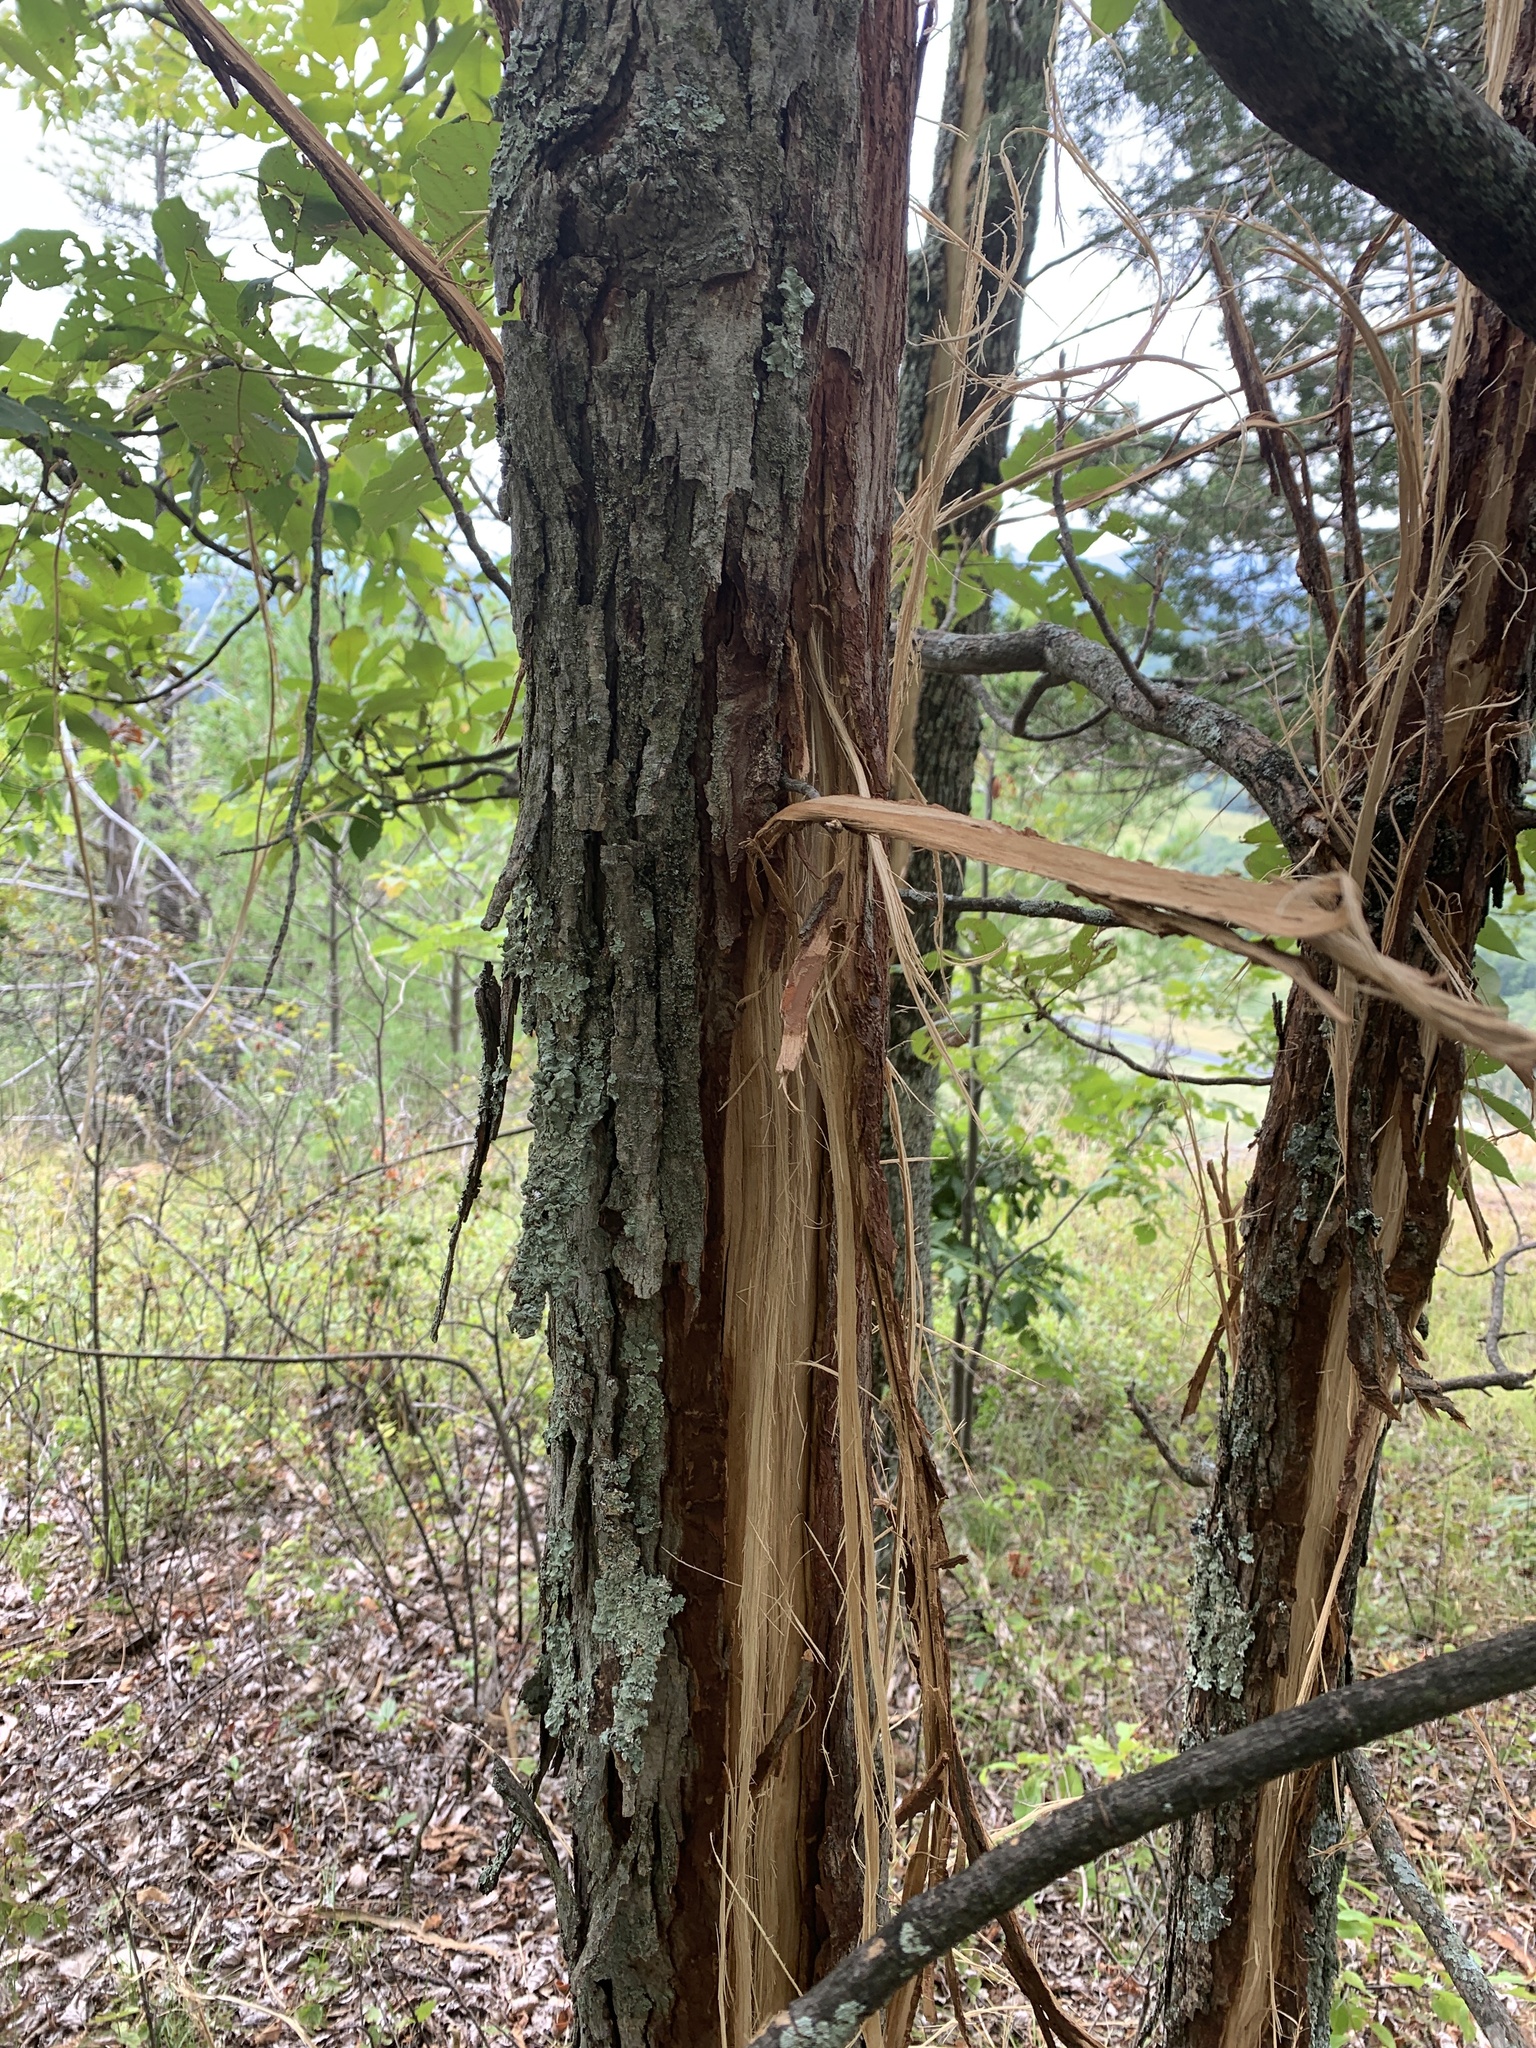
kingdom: Plantae
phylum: Tracheophyta
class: Magnoliopsida
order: Fagales
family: Juglandaceae
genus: Carya
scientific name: Carya ovata
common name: Shagbark hickory
